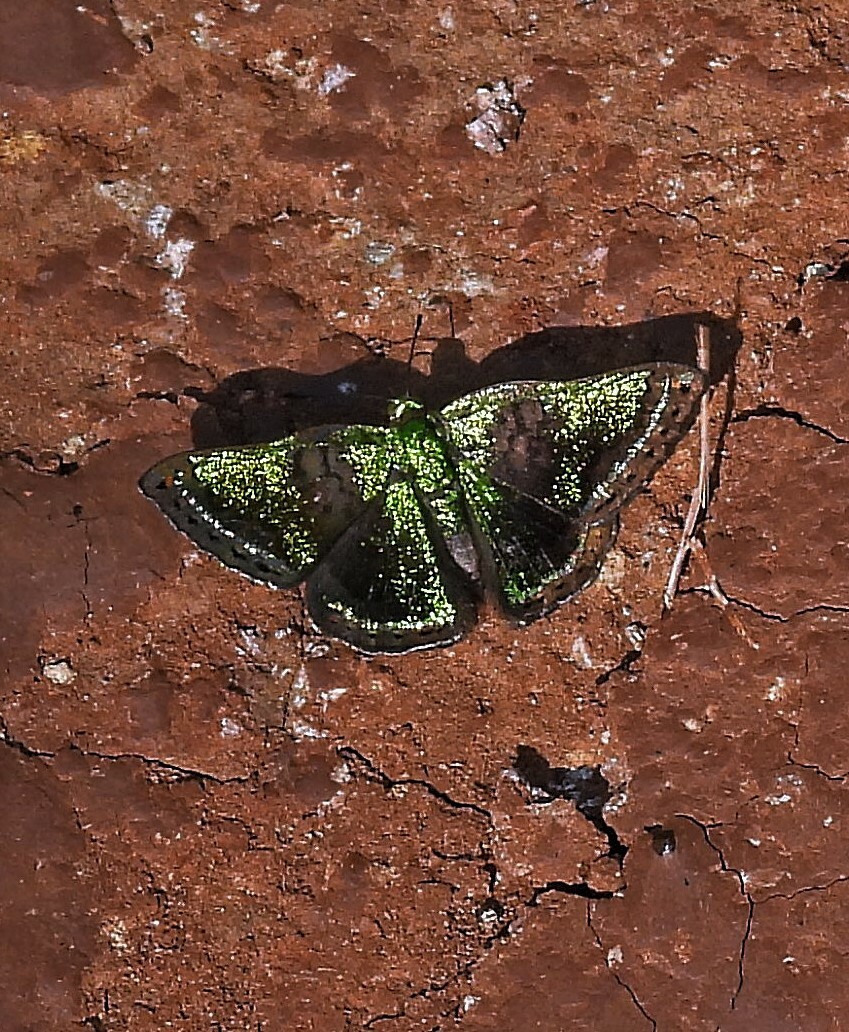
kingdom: Animalia
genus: Caria
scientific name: Caria castalia
